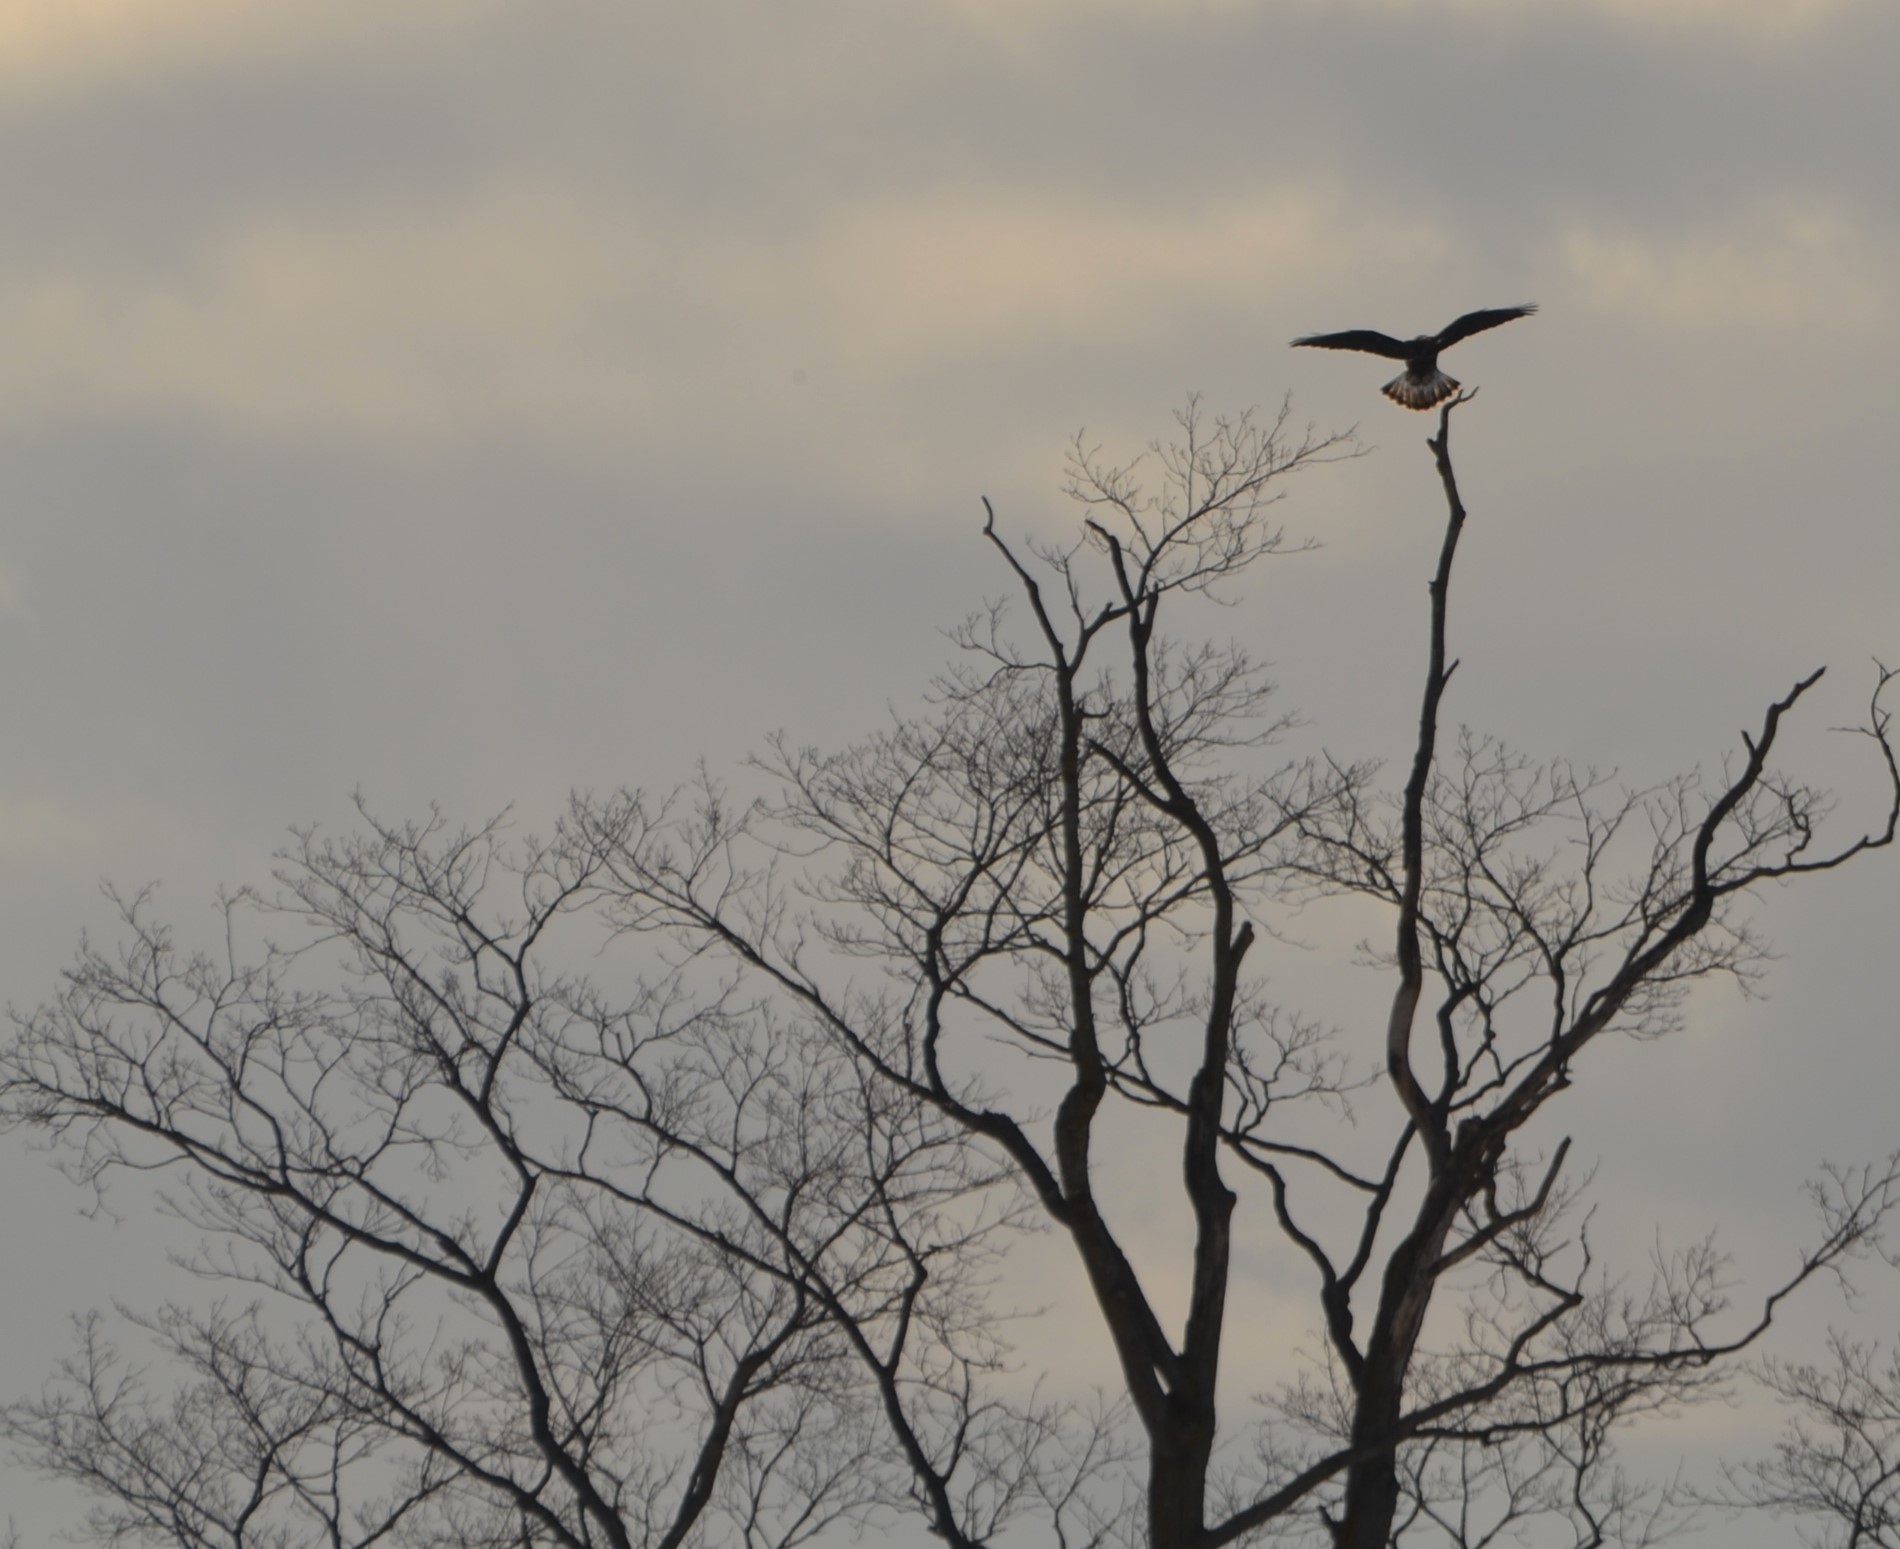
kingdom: Animalia
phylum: Chordata
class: Aves
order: Accipitriformes
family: Accipitridae
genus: Buteo
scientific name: Buteo lagopus
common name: Rough-legged buzzard
